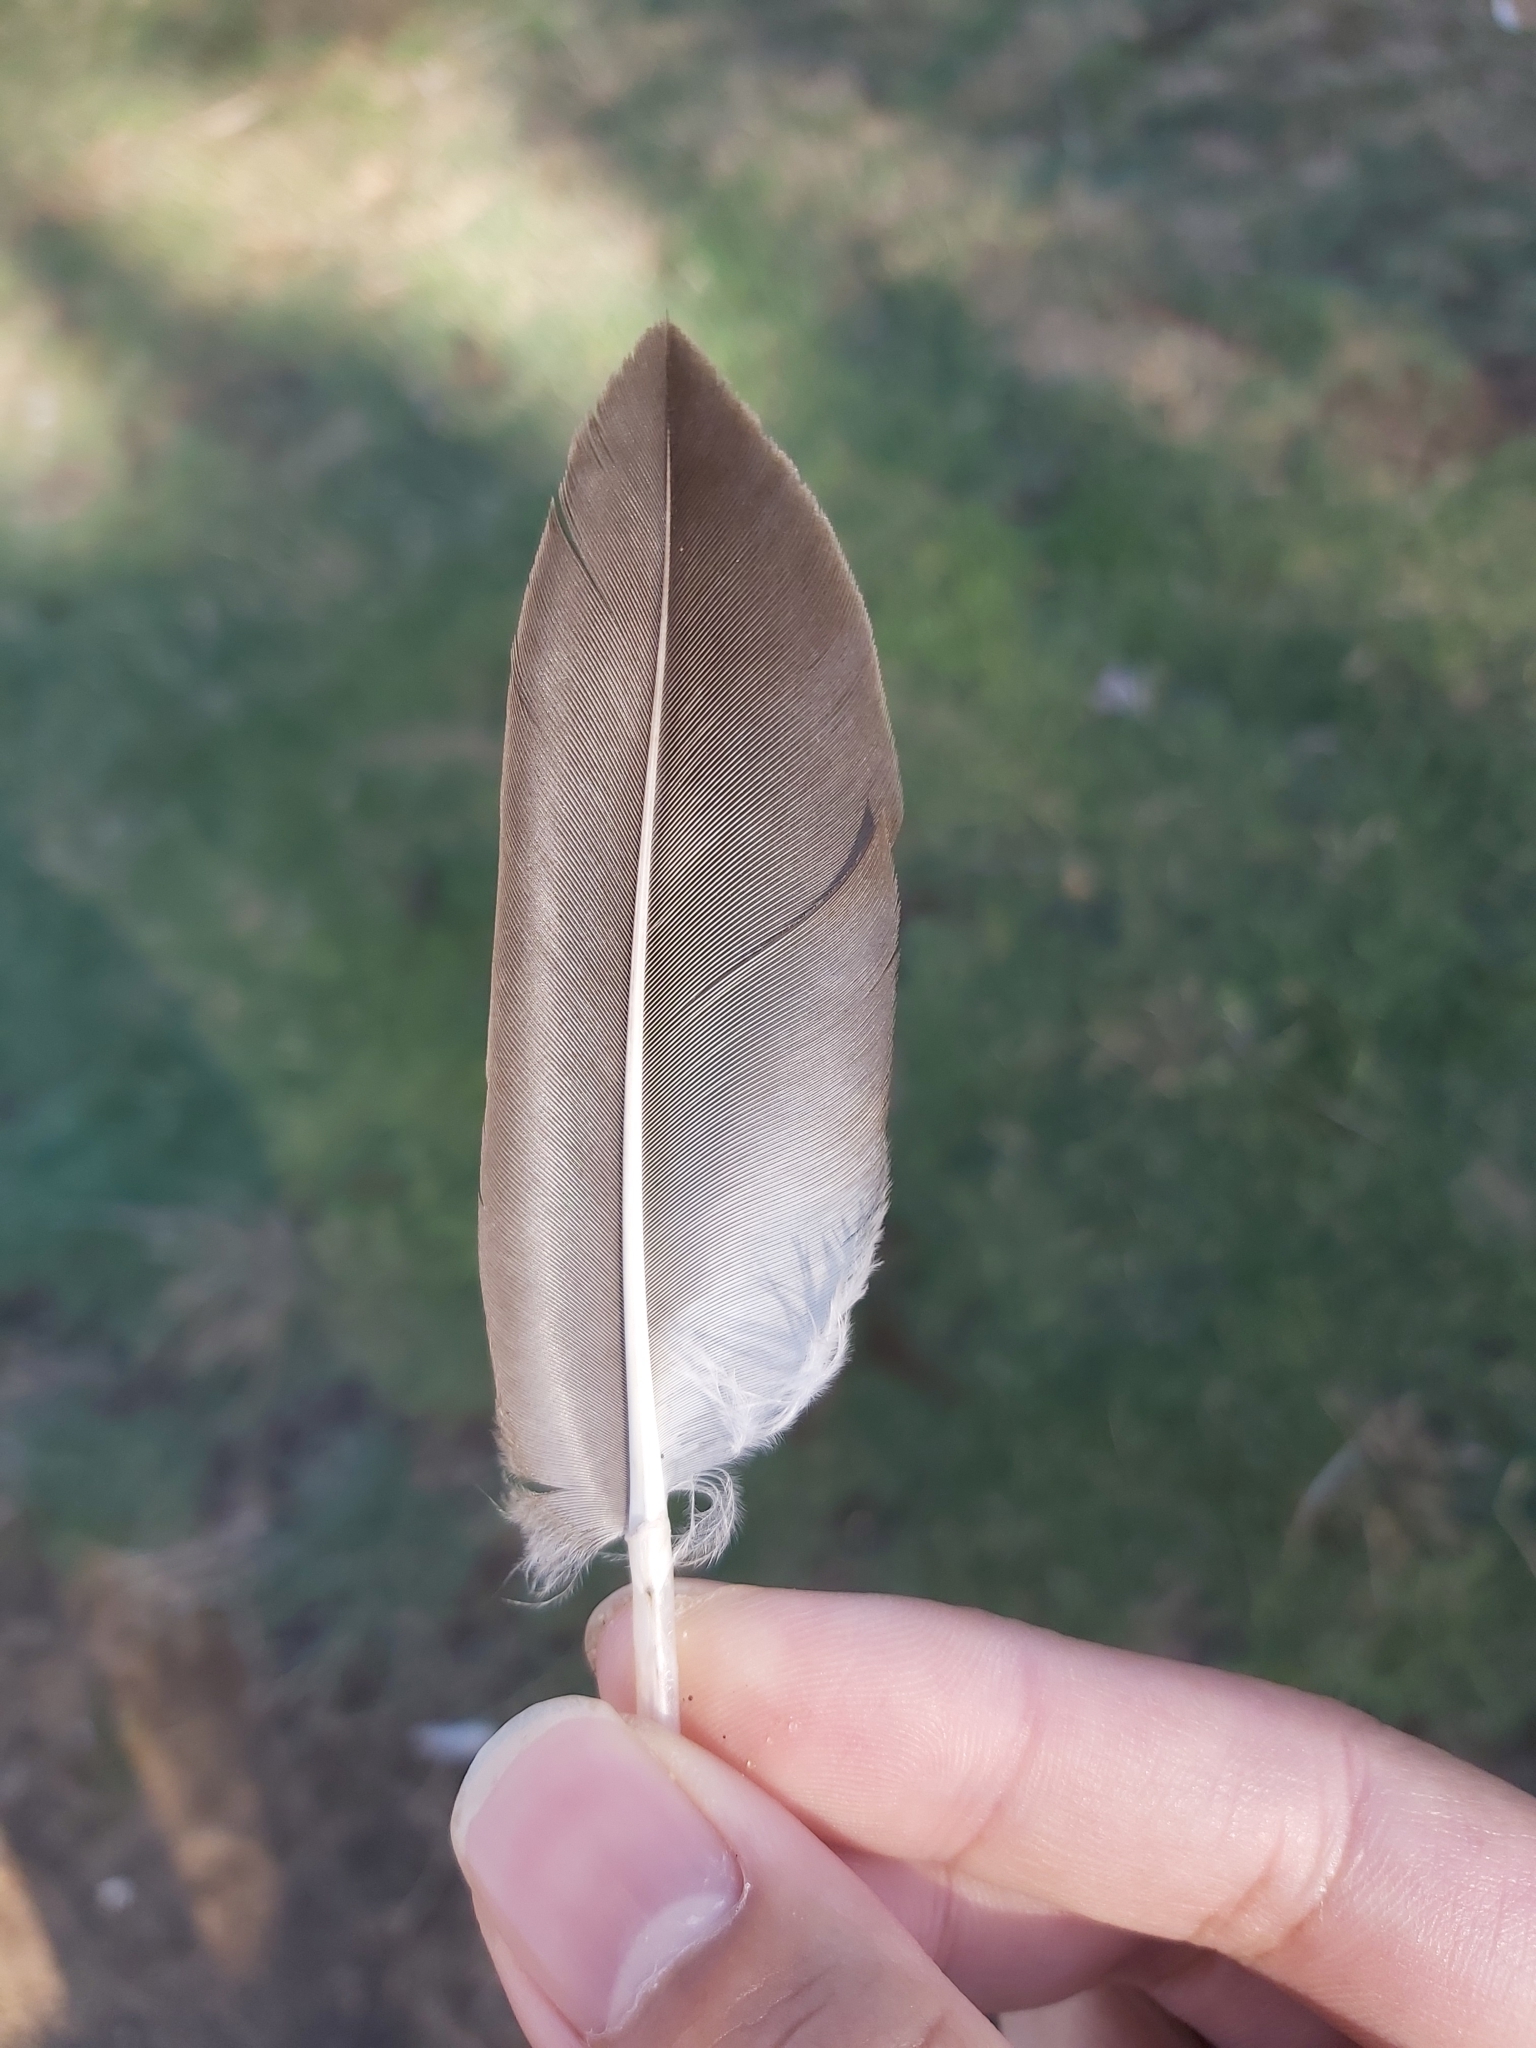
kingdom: Animalia
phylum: Chordata
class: Aves
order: Suliformes
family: Sulidae
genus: Morus
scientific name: Morus serrator
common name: Australasian gannet
